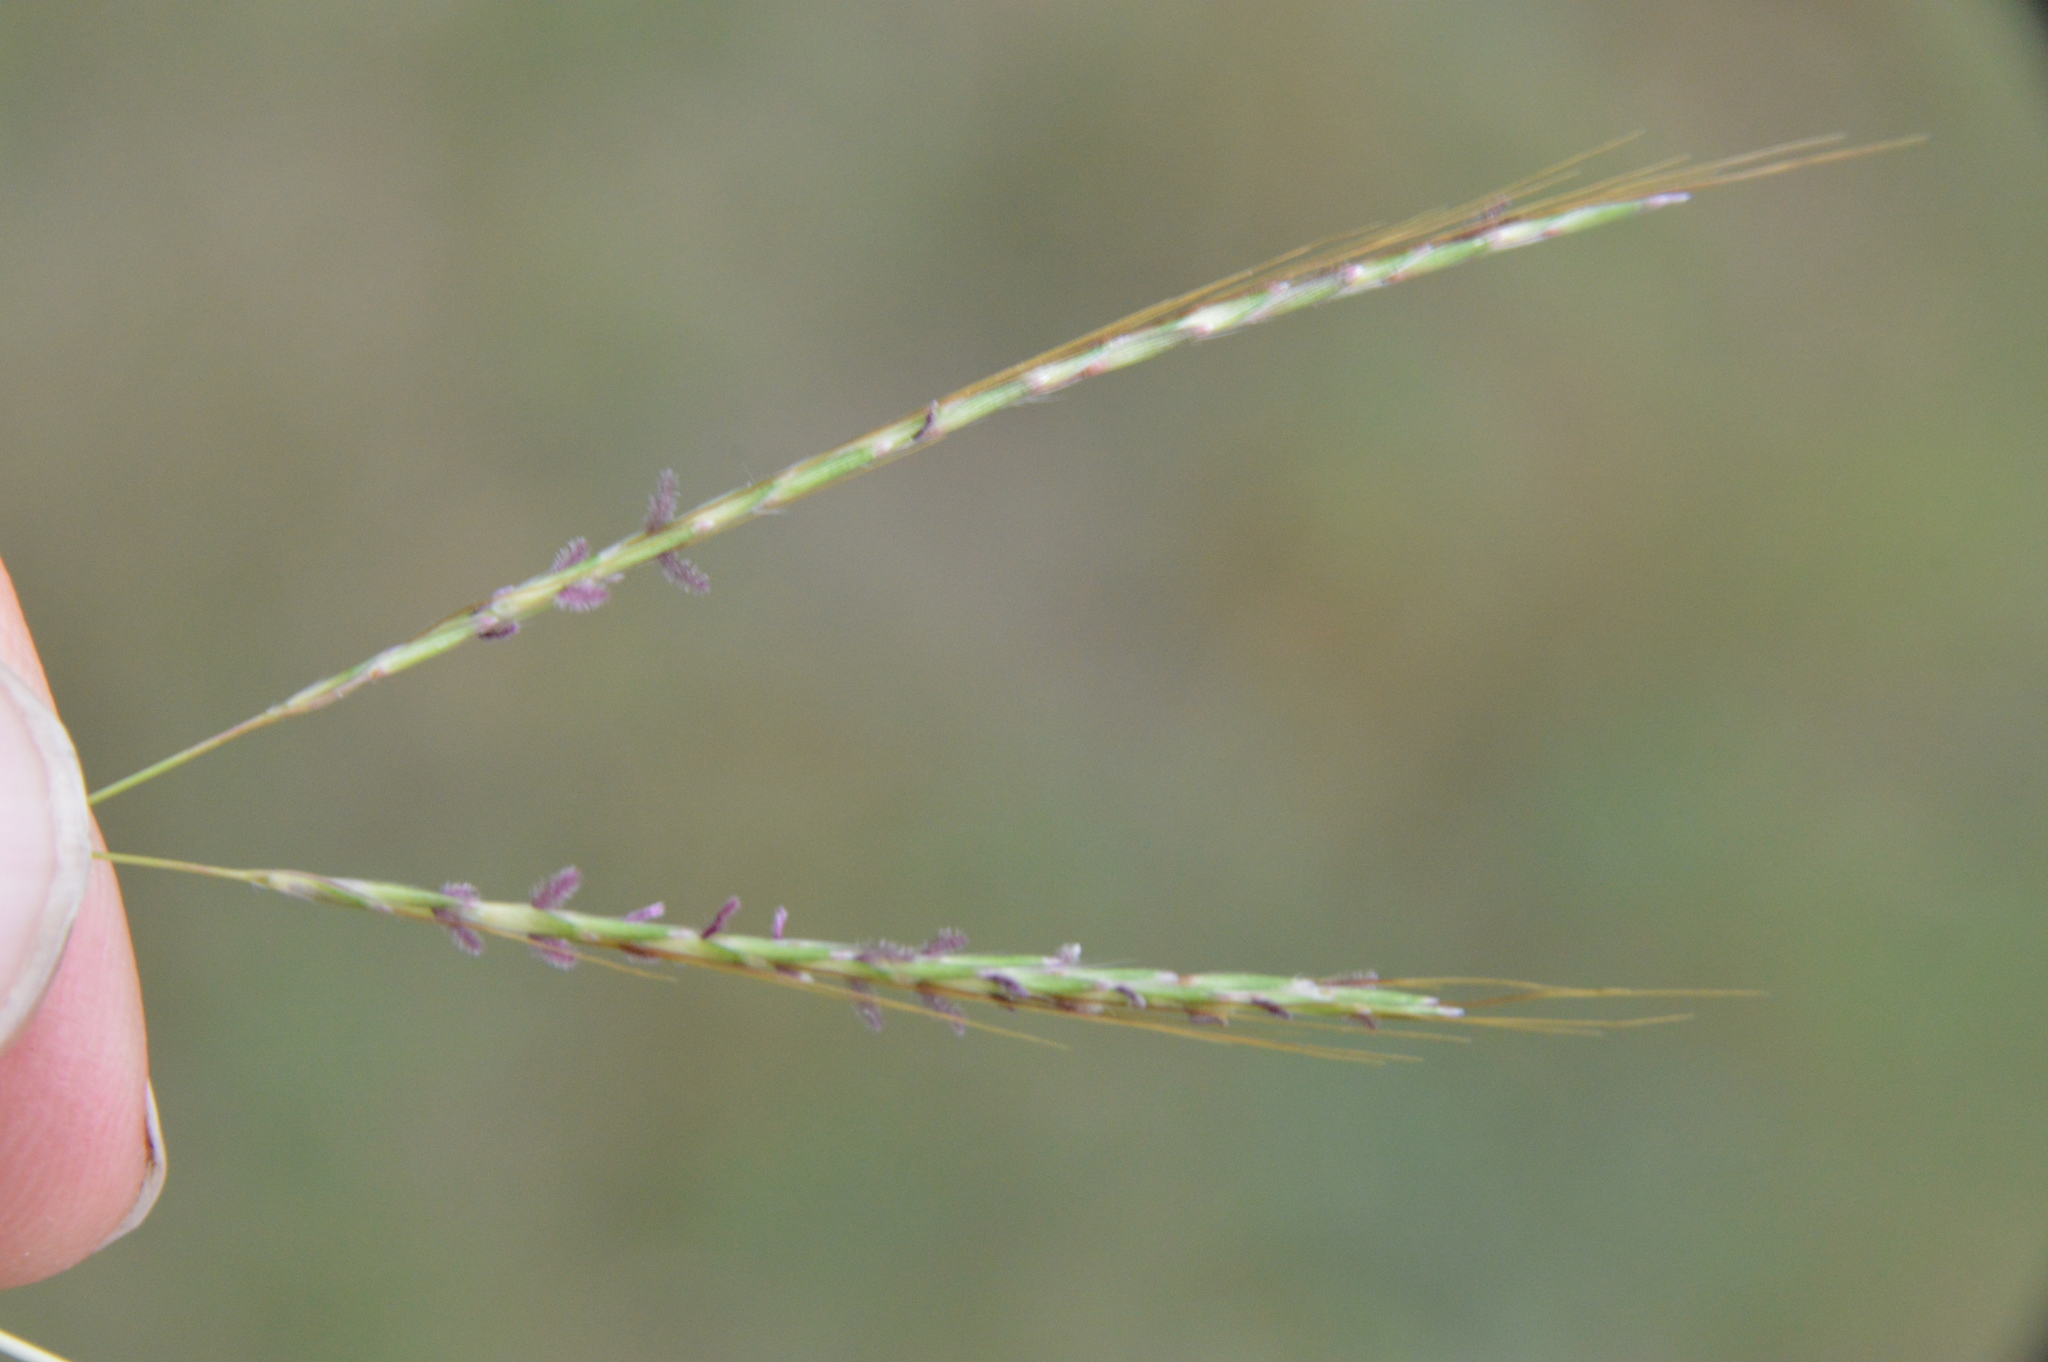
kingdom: Plantae
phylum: Tracheophyta
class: Liliopsida
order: Poales
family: Poaceae
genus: Bothriochloa
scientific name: Bothriochloa ischaemum
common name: Yellow bluestem
